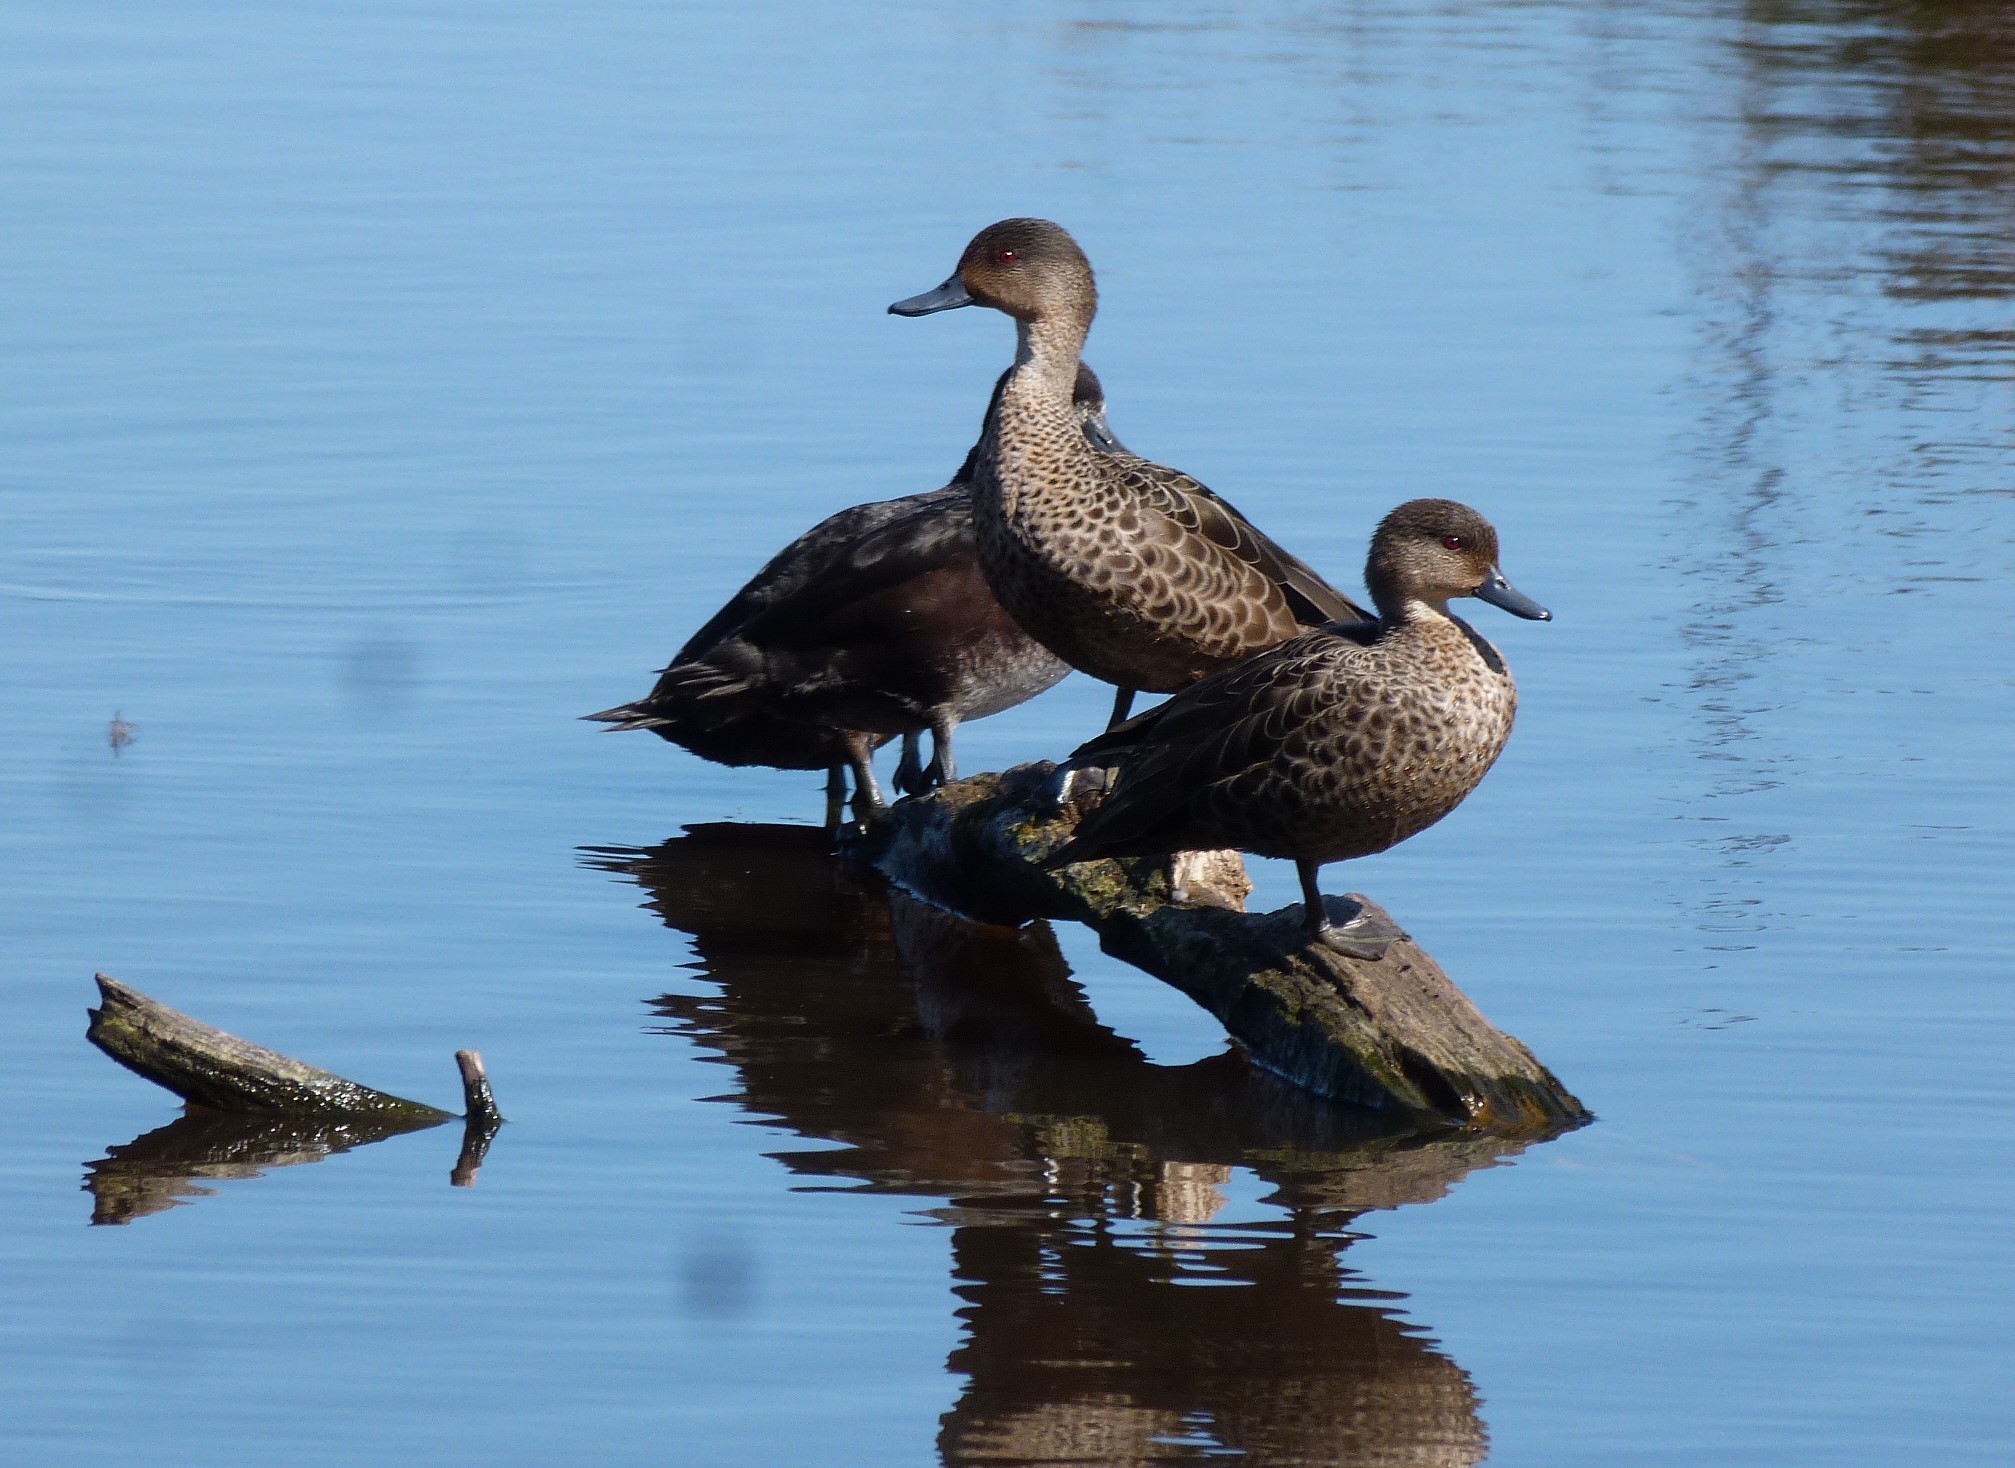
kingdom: Animalia
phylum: Chordata
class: Aves
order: Anseriformes
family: Anatidae
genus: Anas
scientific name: Anas gracilis
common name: Grey teal
